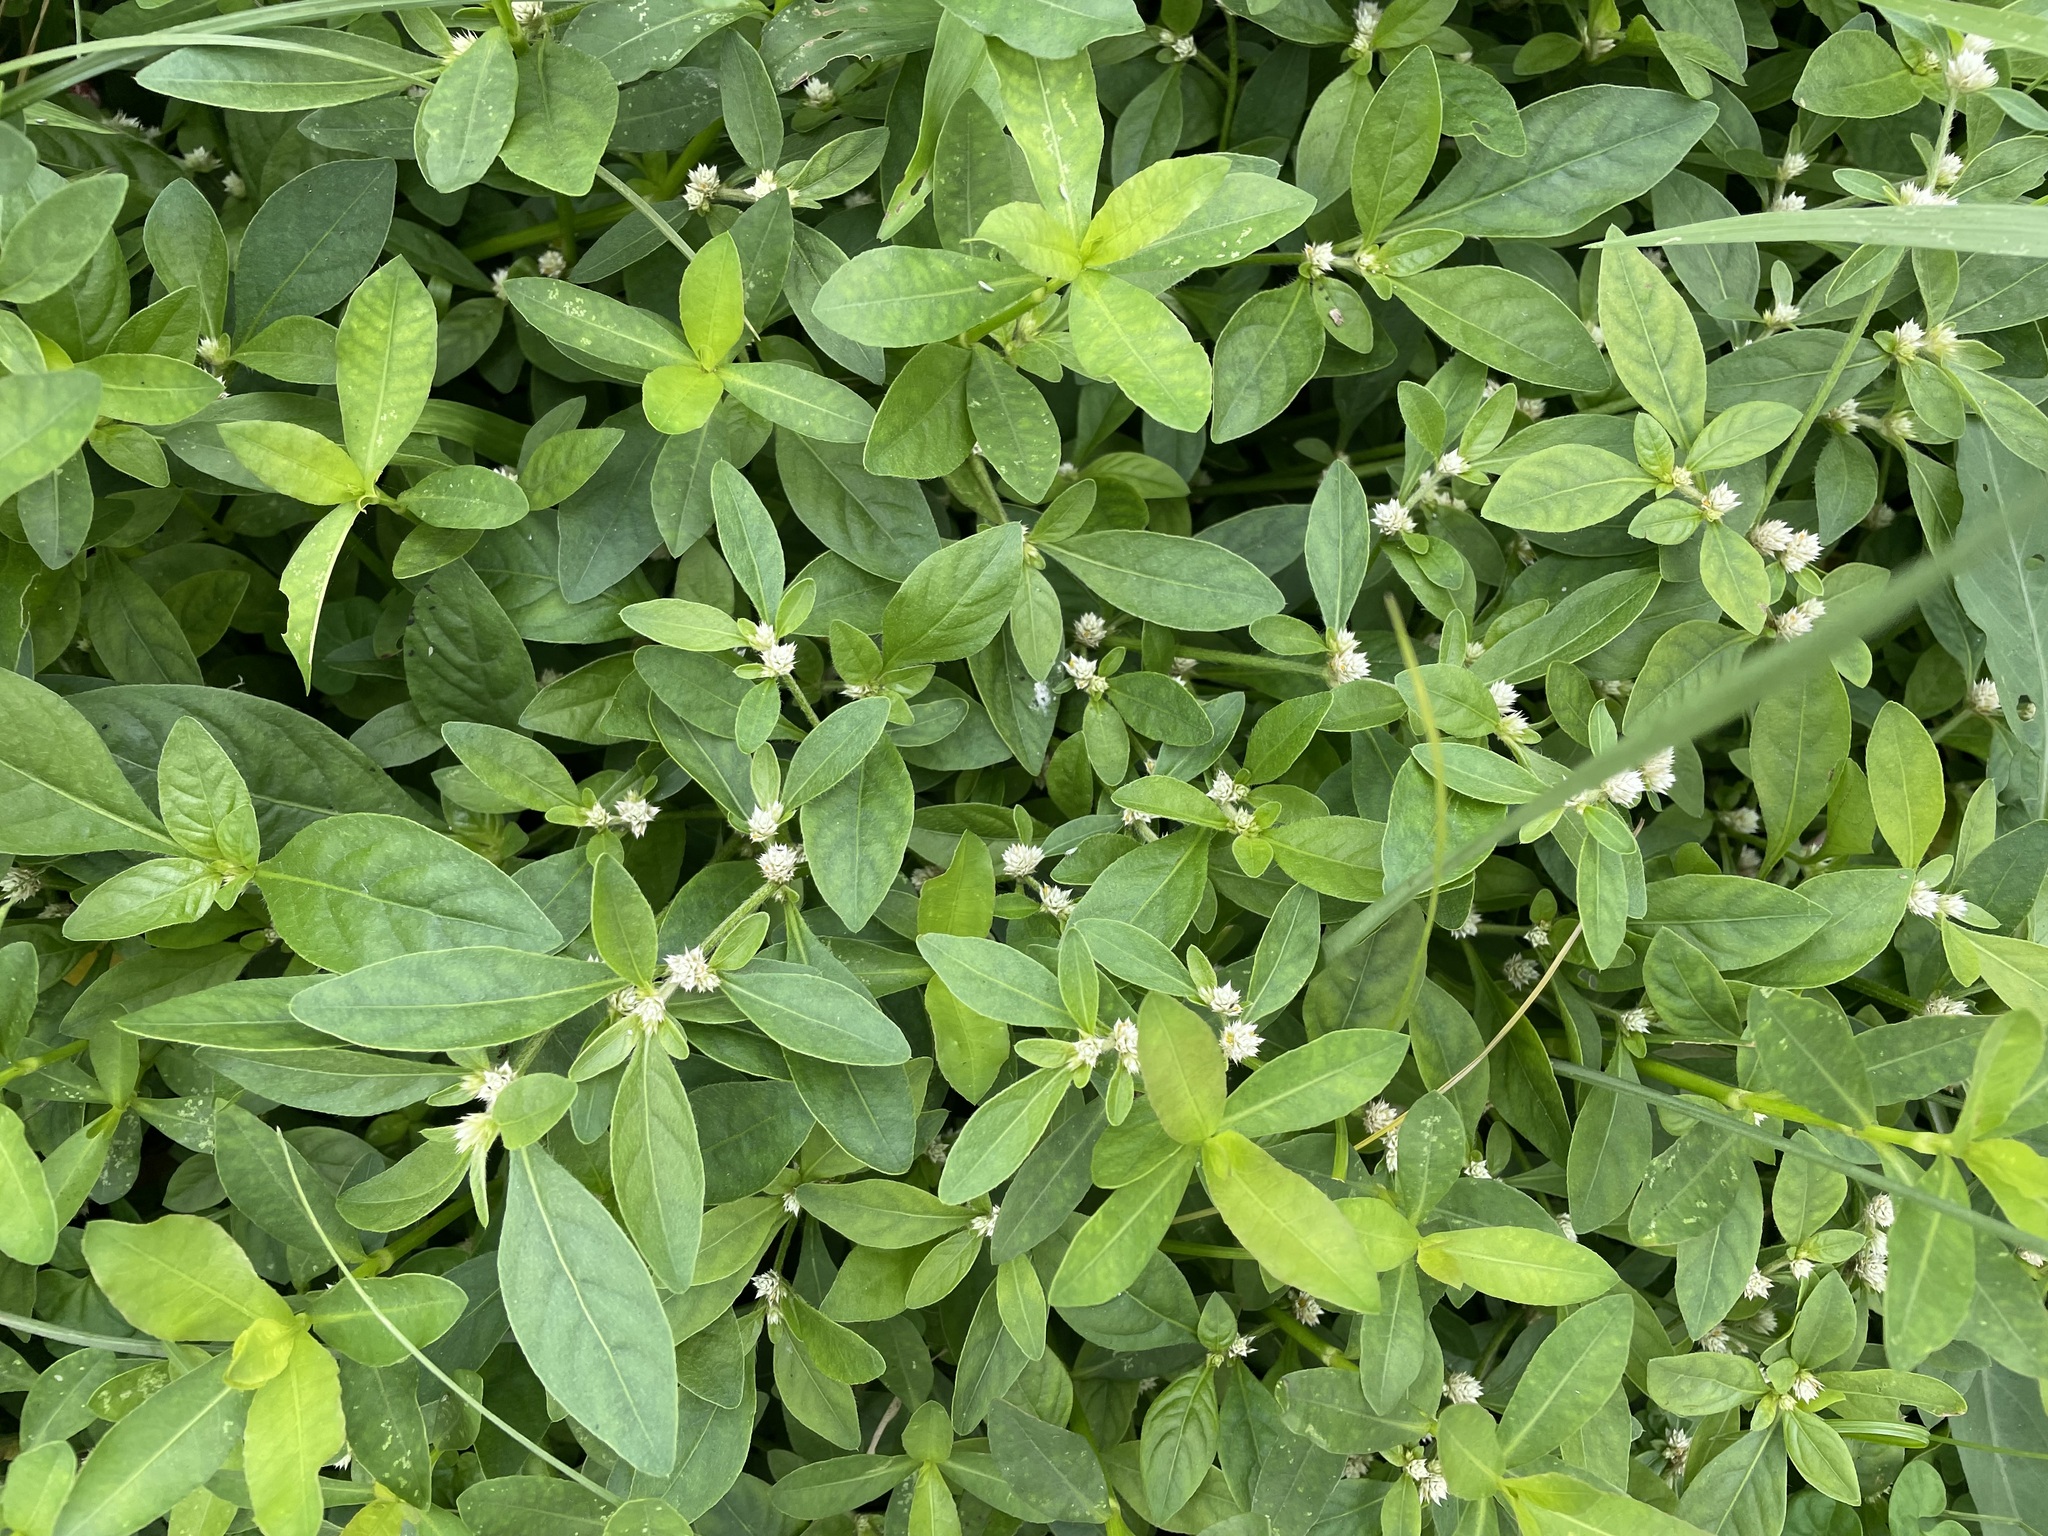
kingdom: Plantae
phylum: Tracheophyta
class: Magnoliopsida
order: Caryophyllales
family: Amaranthaceae
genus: Alternanthera
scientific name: Alternanthera sessilis
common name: Sessile joyweed
